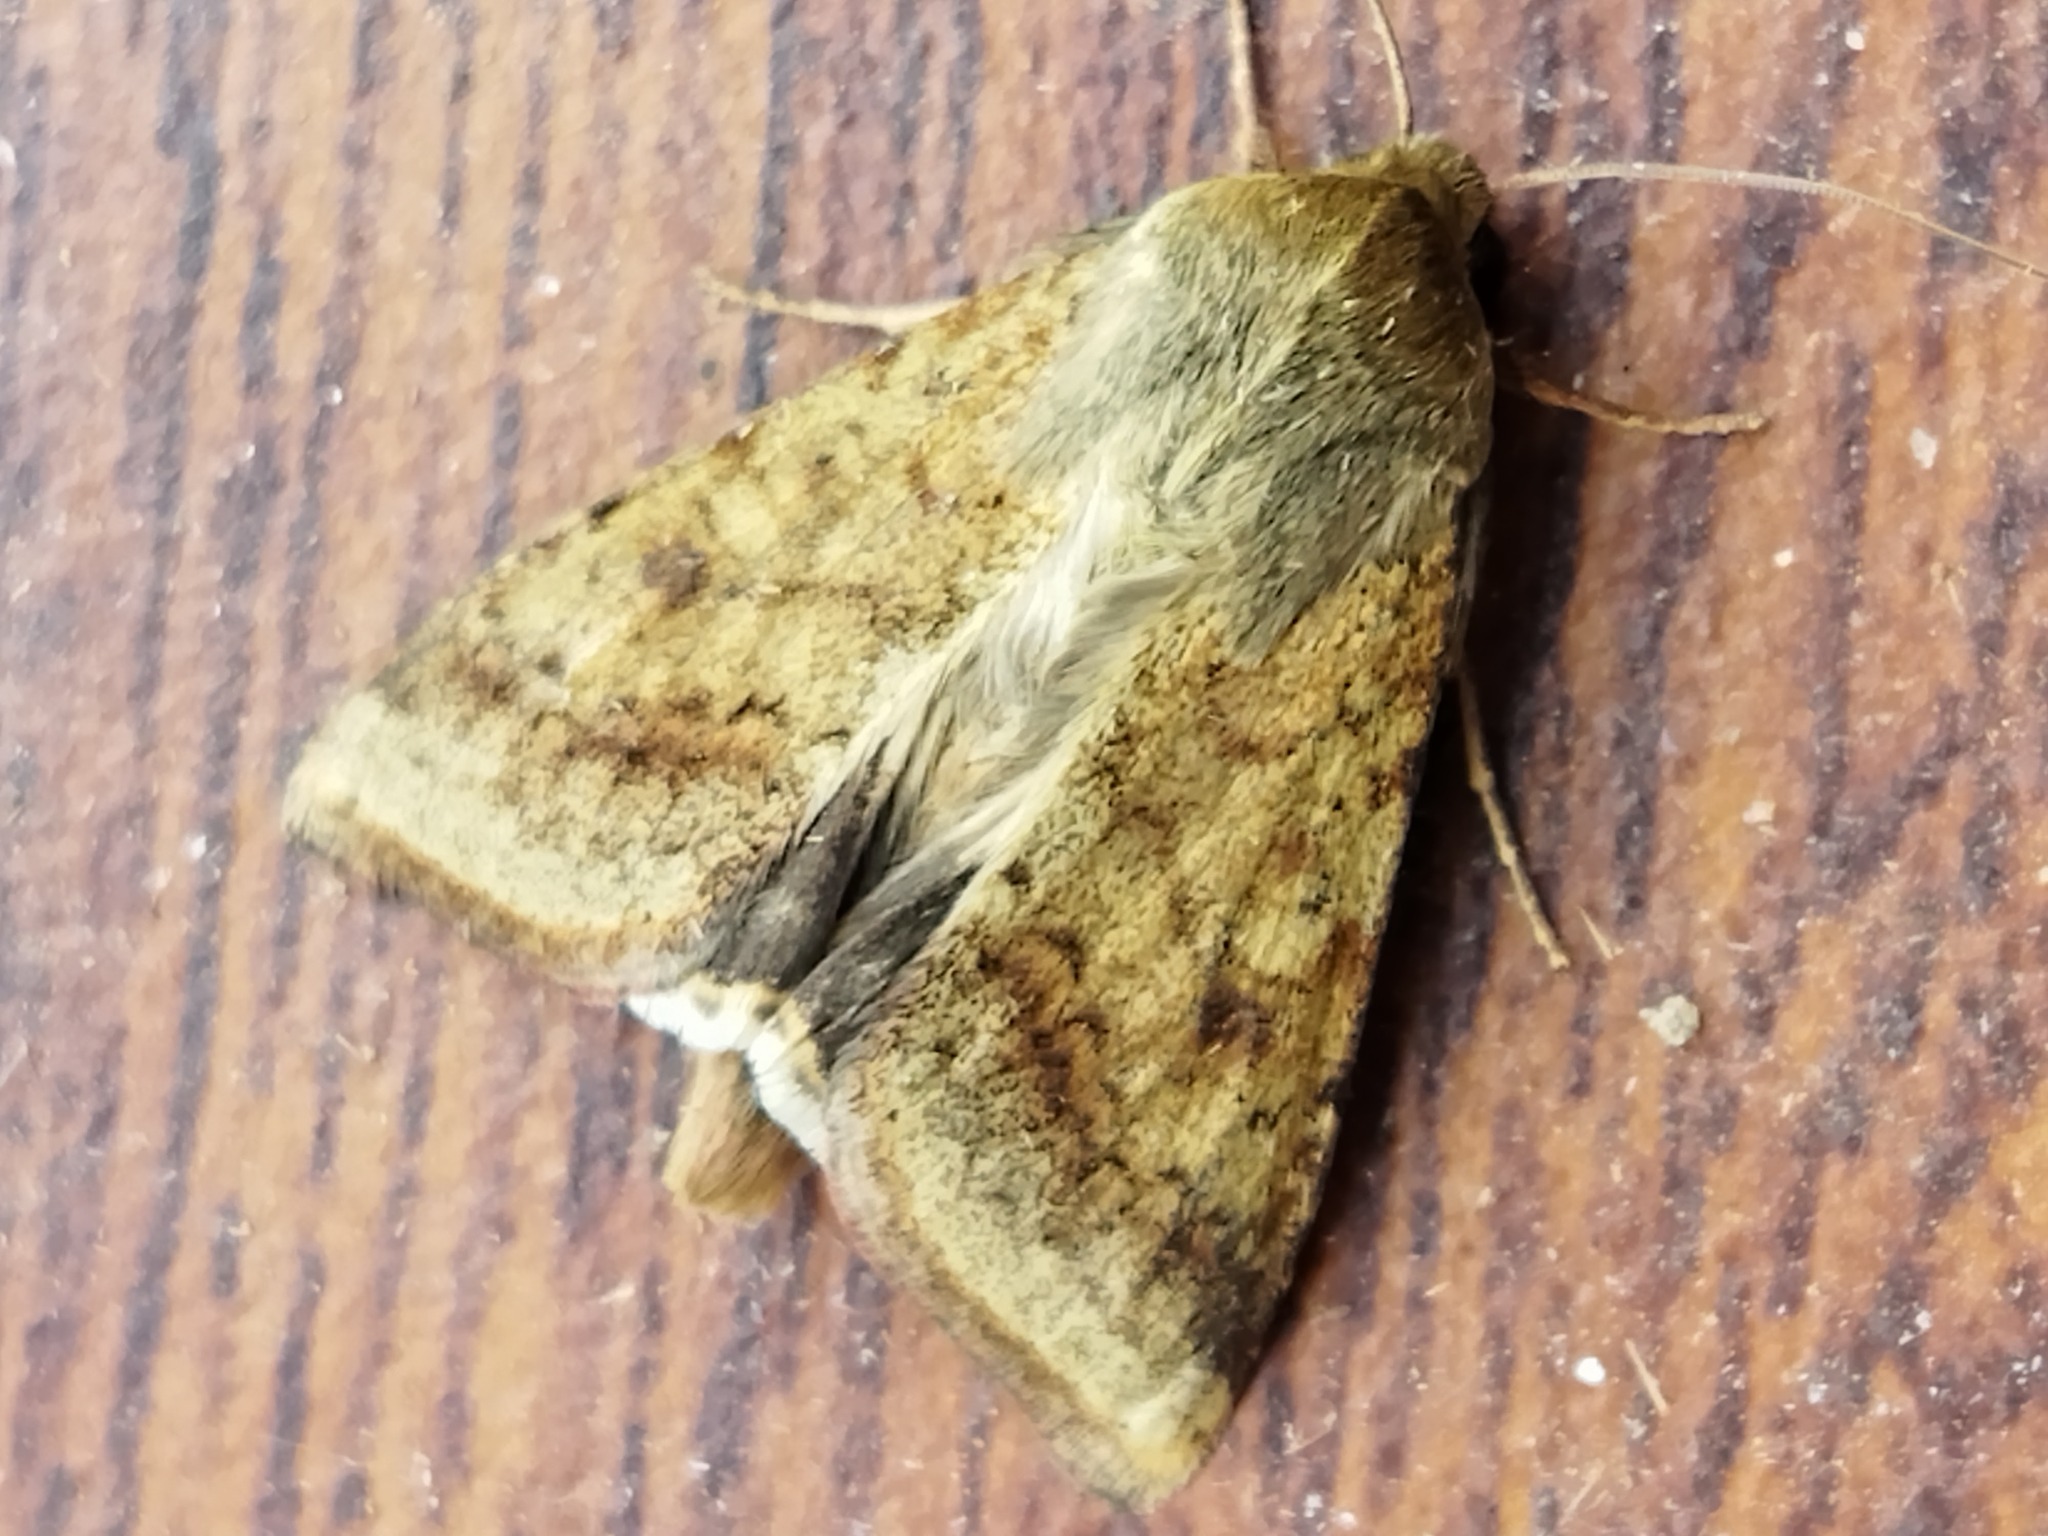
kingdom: Animalia
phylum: Arthropoda
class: Insecta
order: Lepidoptera
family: Noctuidae
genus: Helicoverpa
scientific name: Helicoverpa armigera
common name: Cotton bollworm
